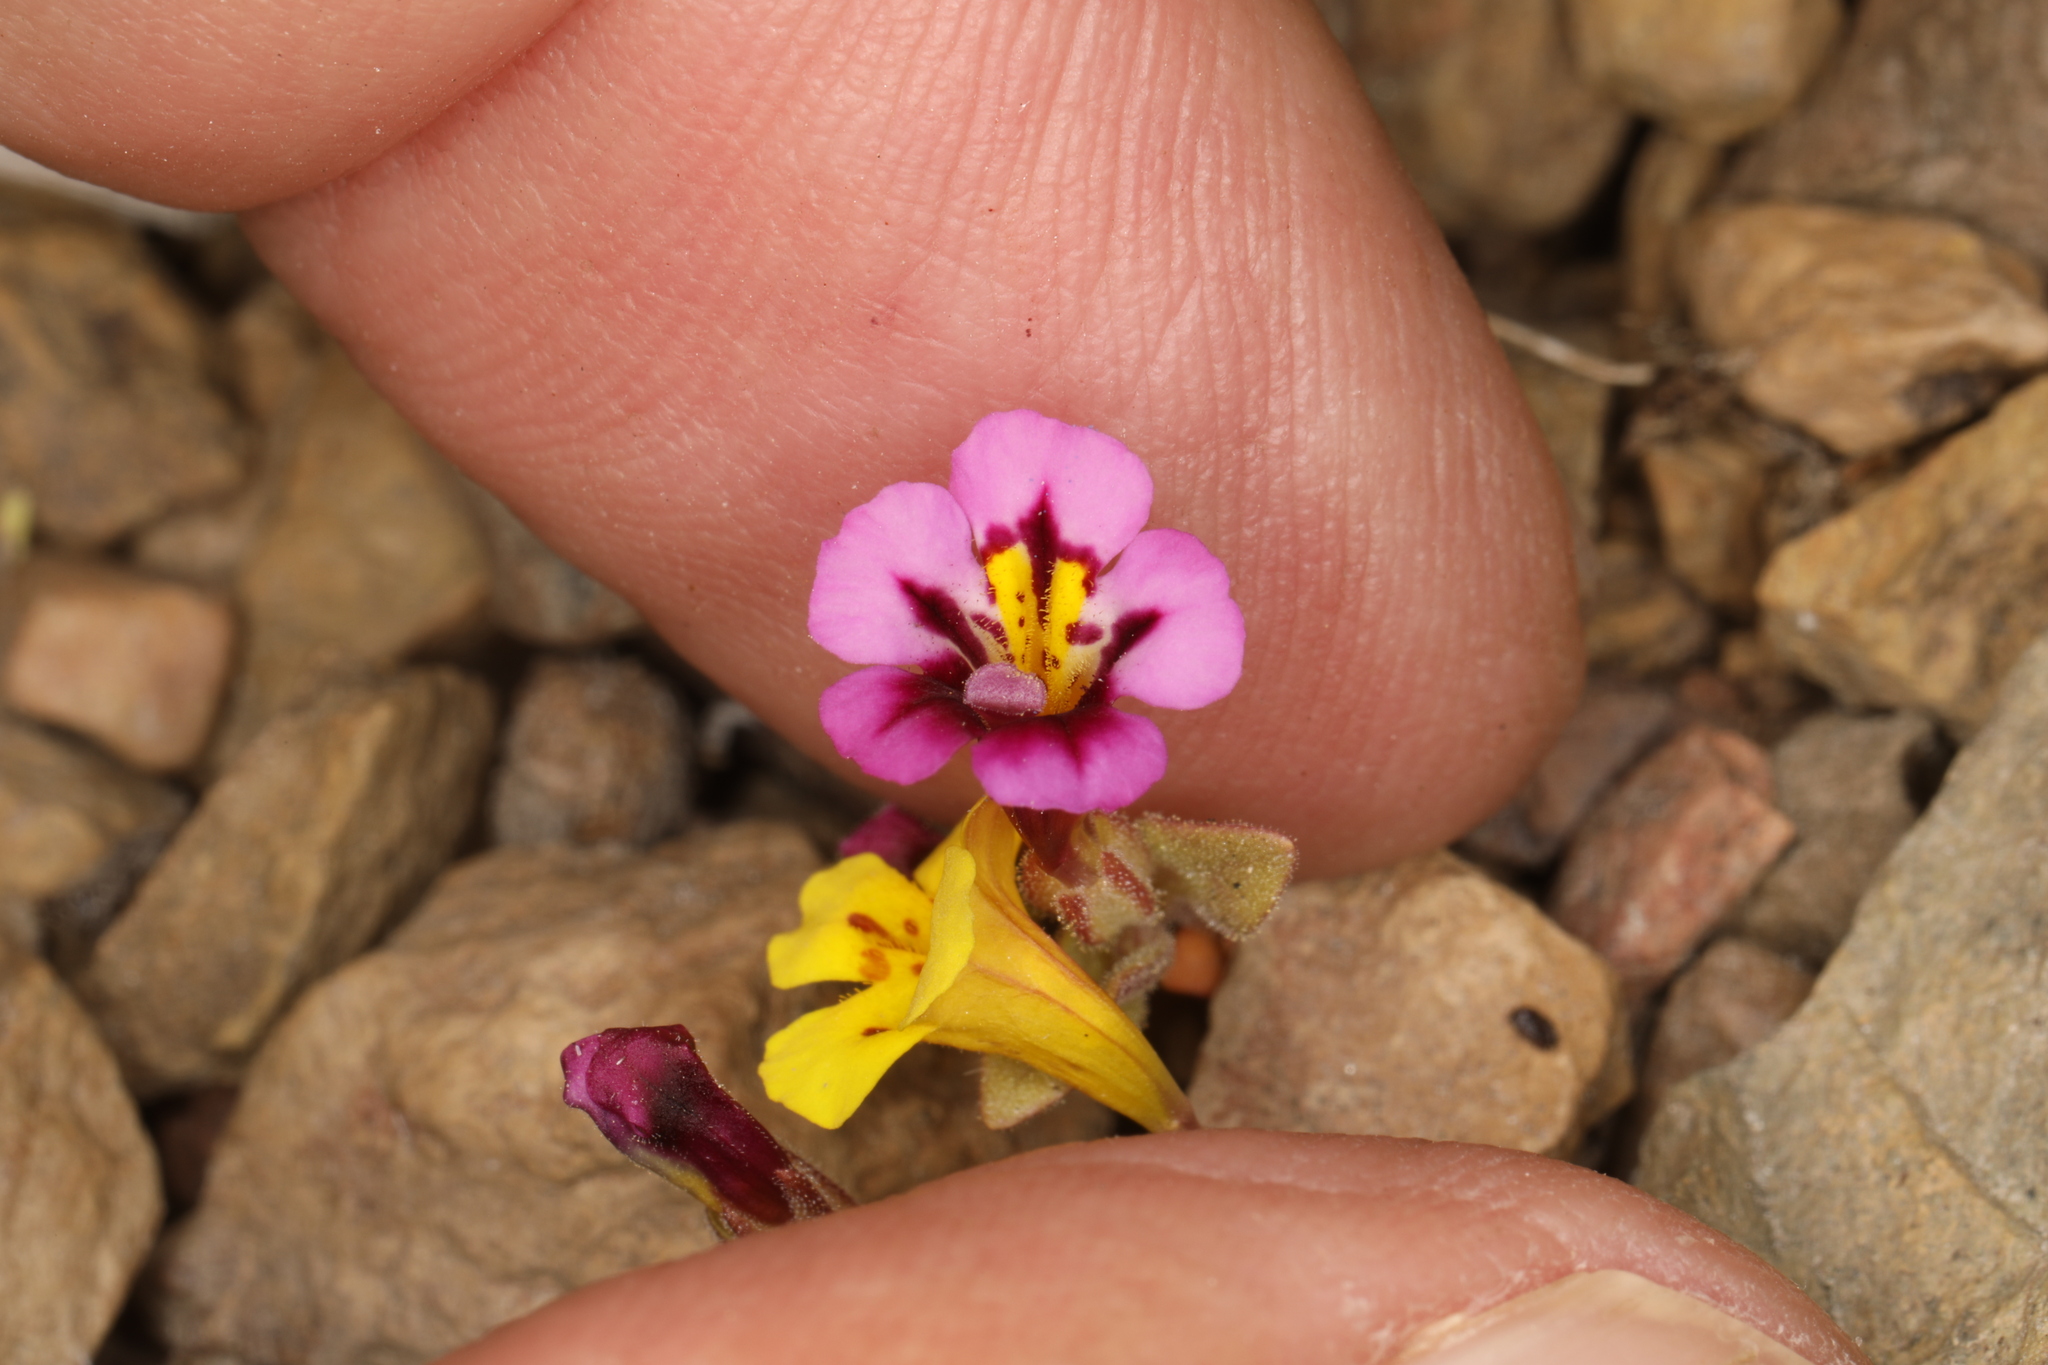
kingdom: Plantae
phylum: Tracheophyta
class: Magnoliopsida
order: Lamiales
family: Phrymaceae
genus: Diplacus
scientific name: Diplacus mephiticus
